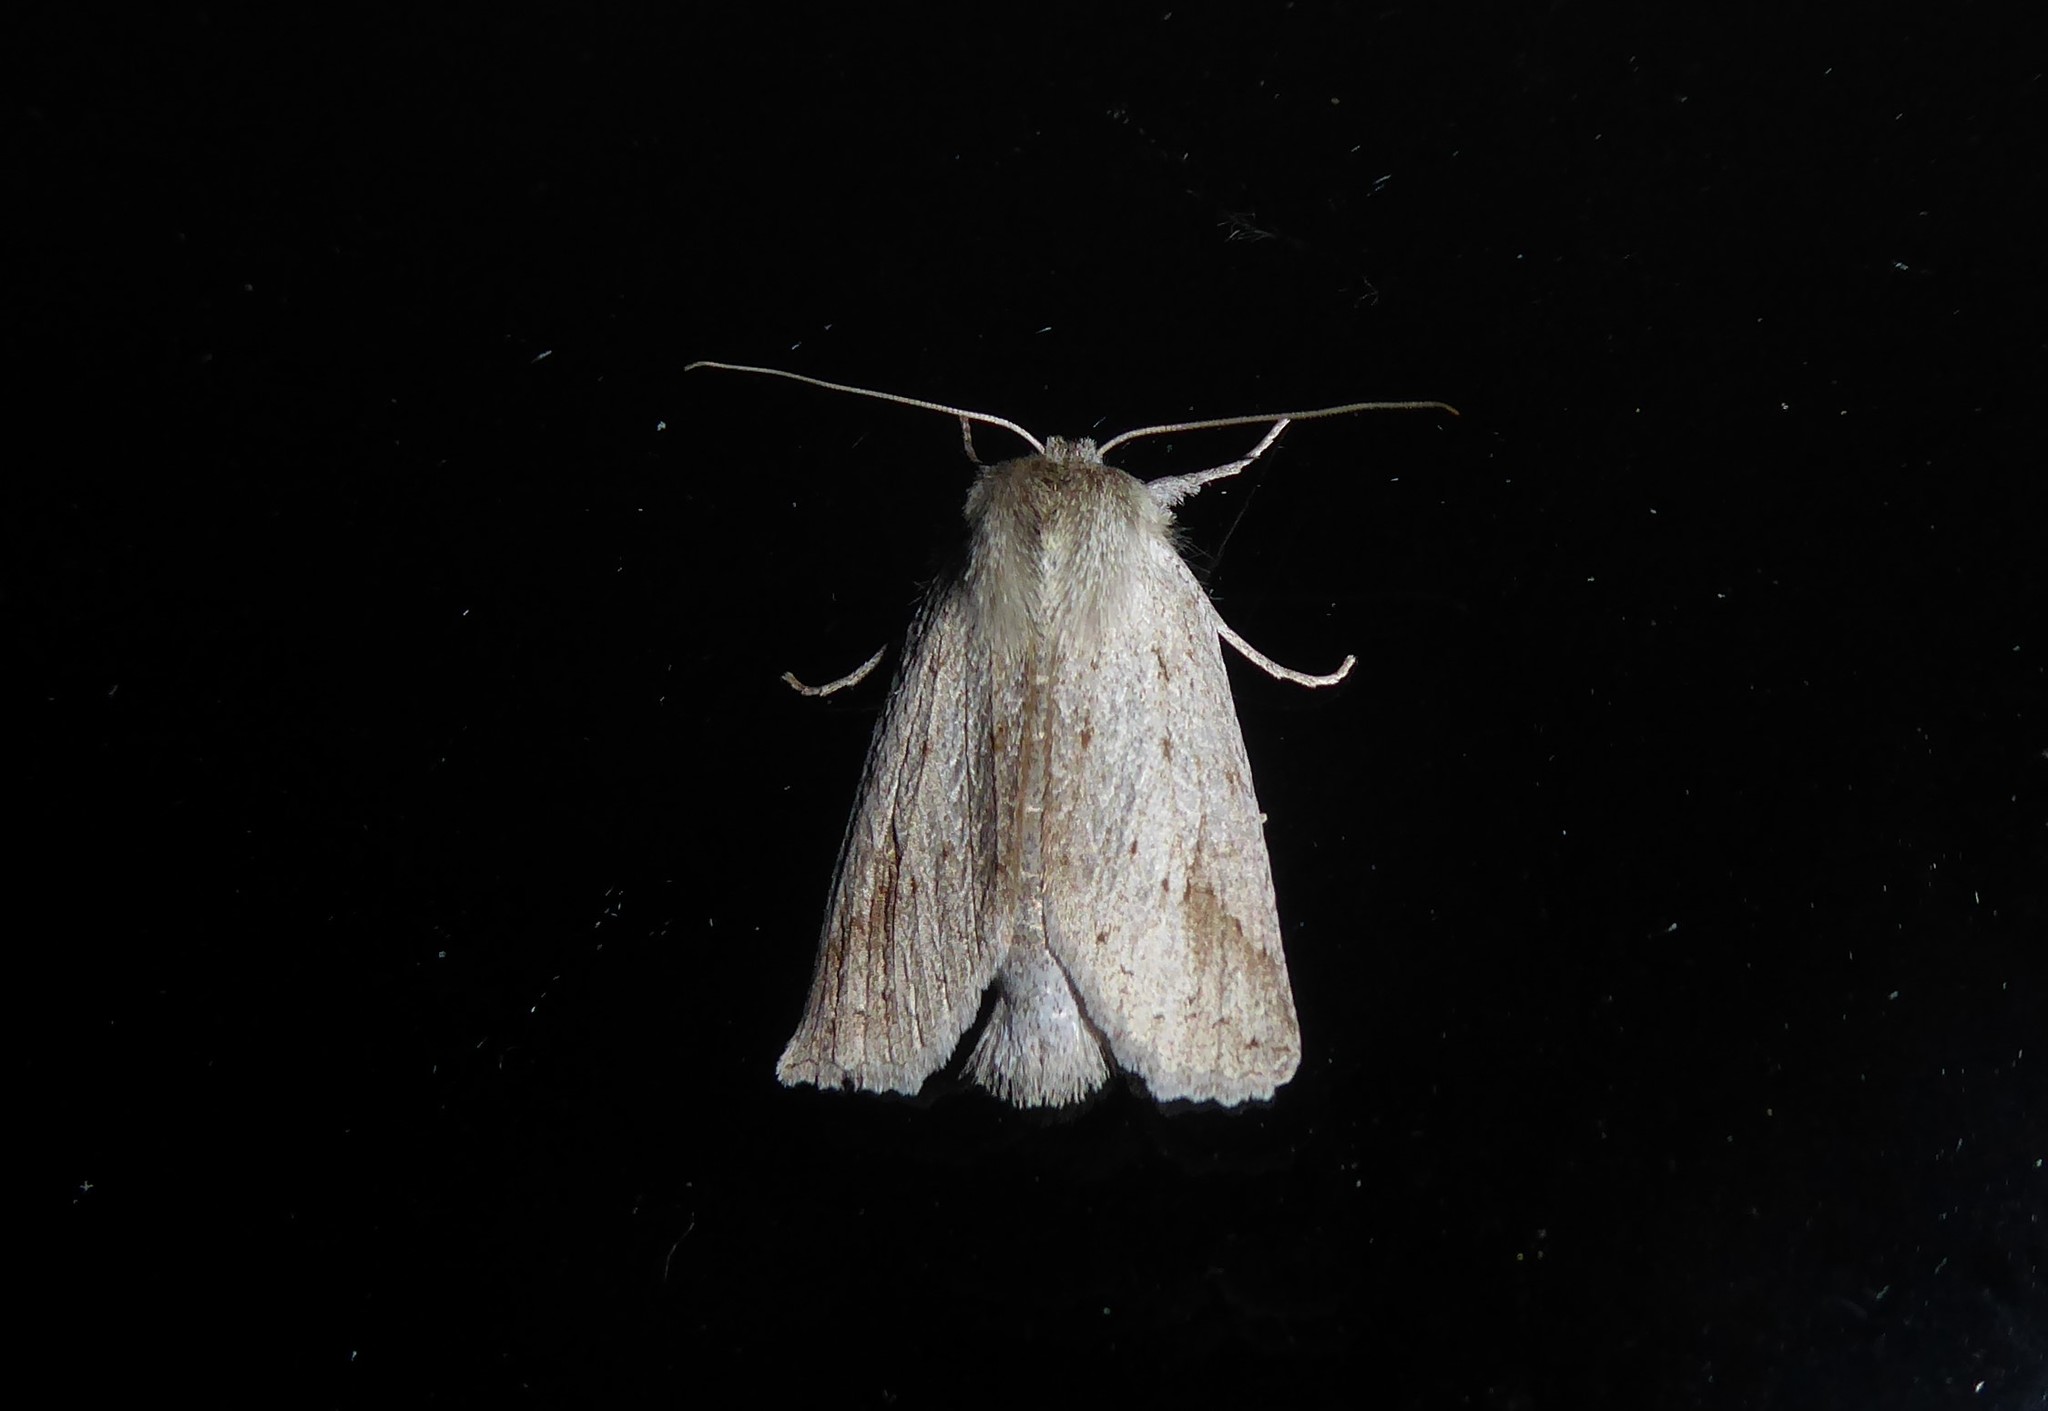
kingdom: Animalia
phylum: Arthropoda
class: Insecta
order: Lepidoptera
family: Geometridae
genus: Declana
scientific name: Declana leptomera
